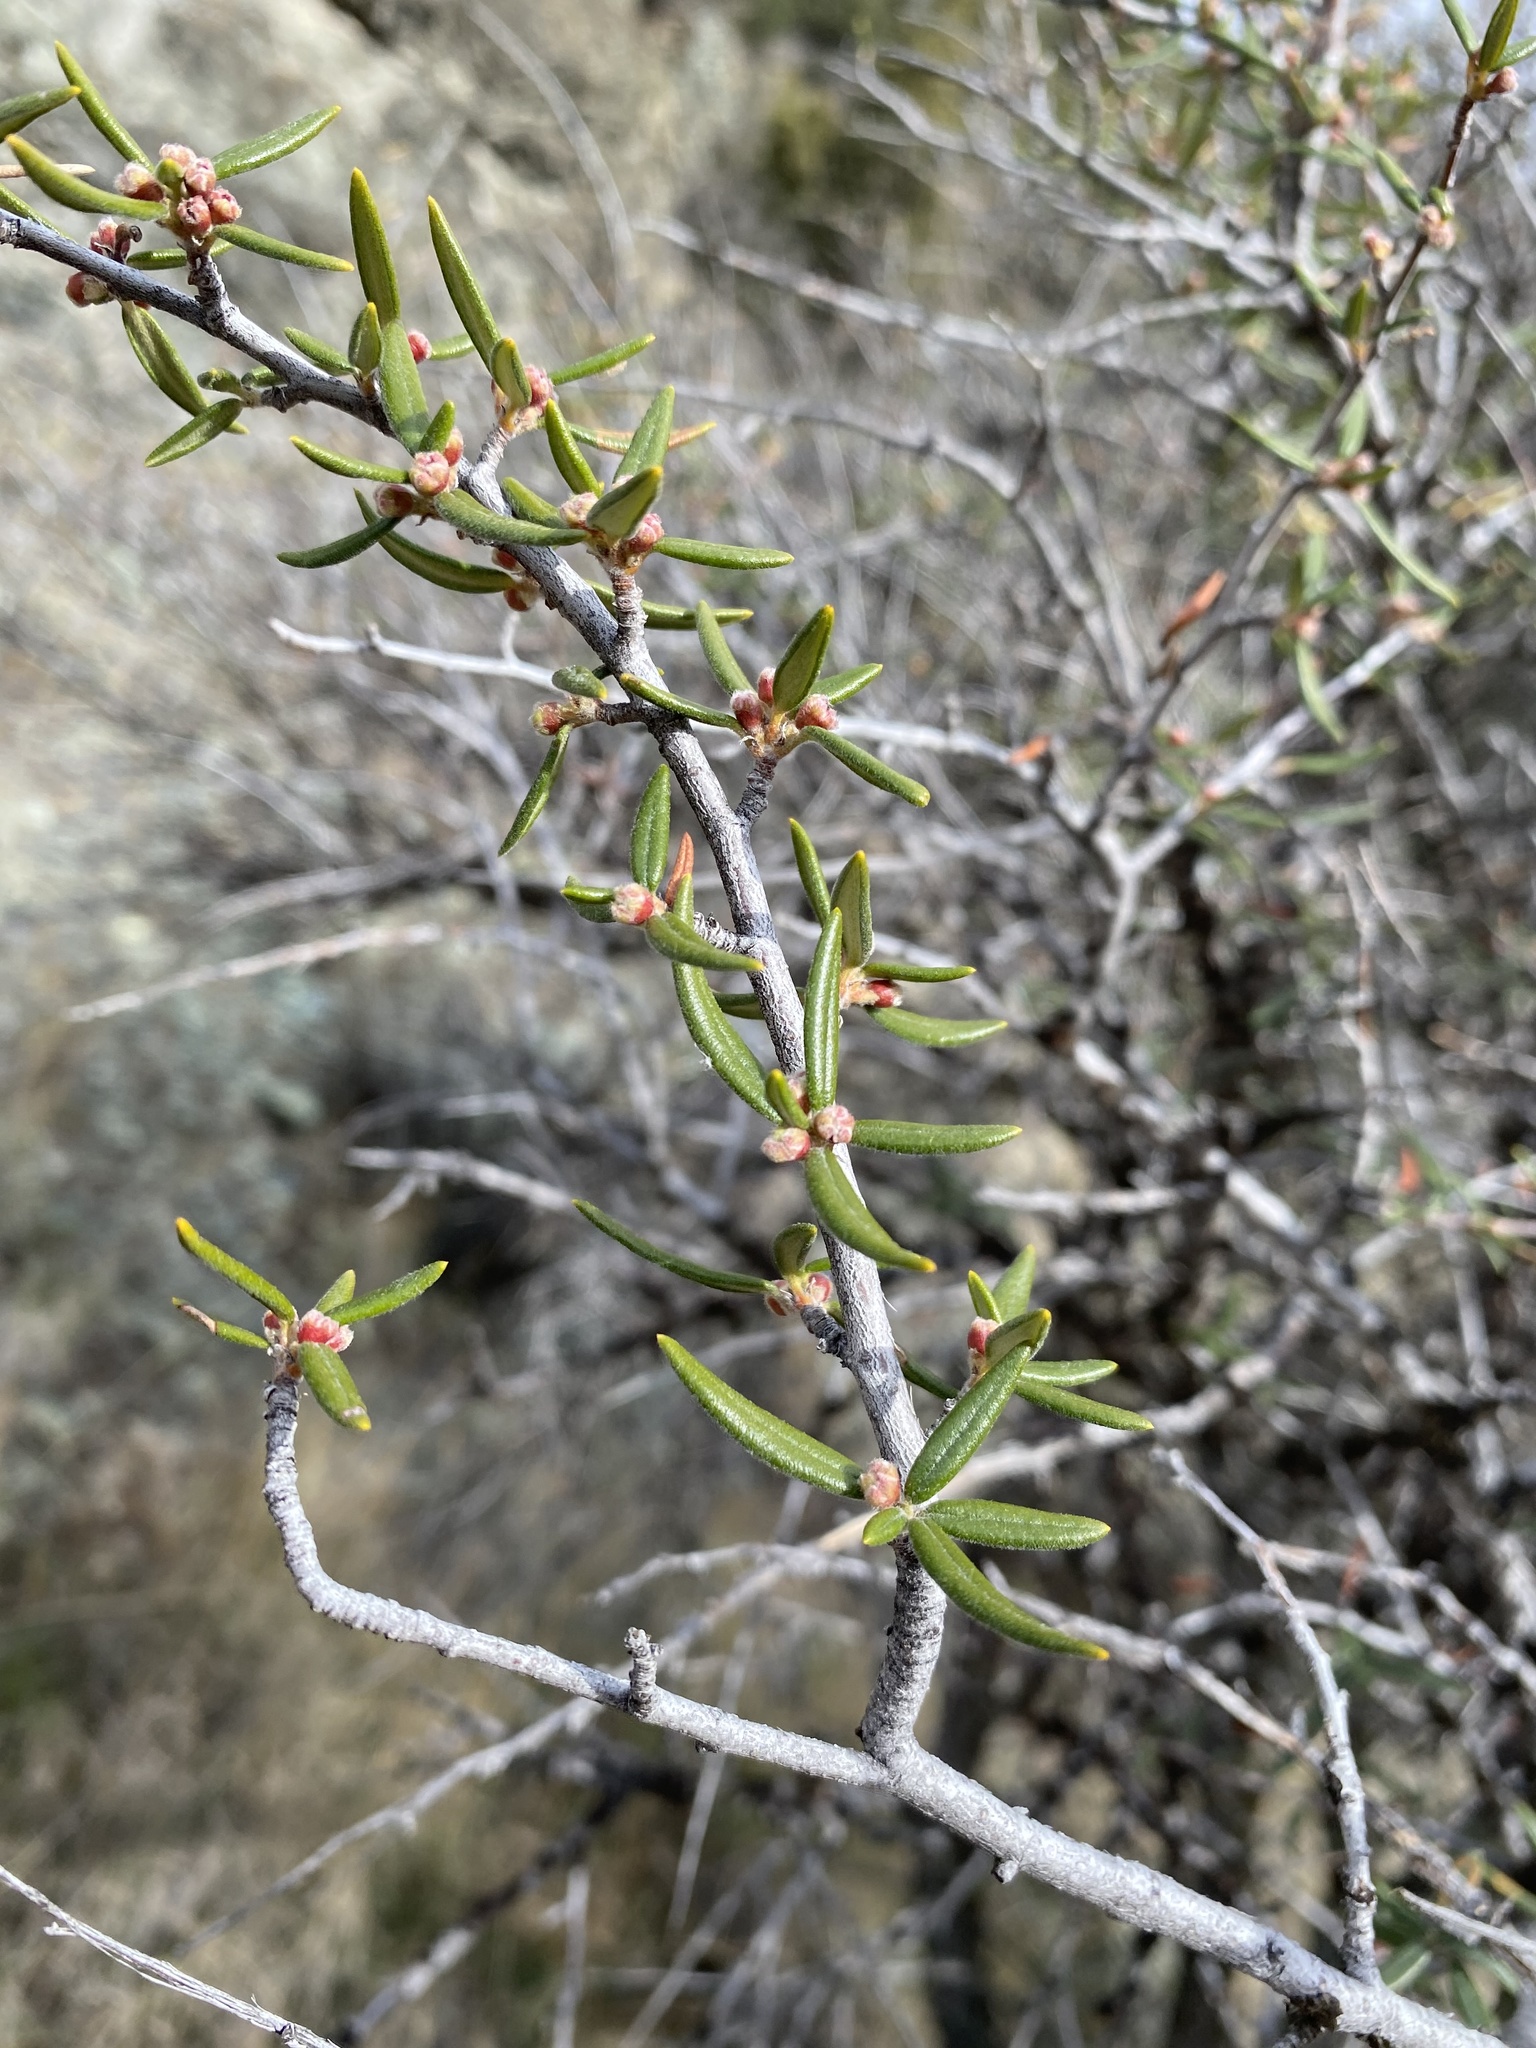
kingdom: Plantae
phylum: Tracheophyta
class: Magnoliopsida
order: Rosales
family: Rosaceae
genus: Cercocarpus
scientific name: Cercocarpus ledifolius
